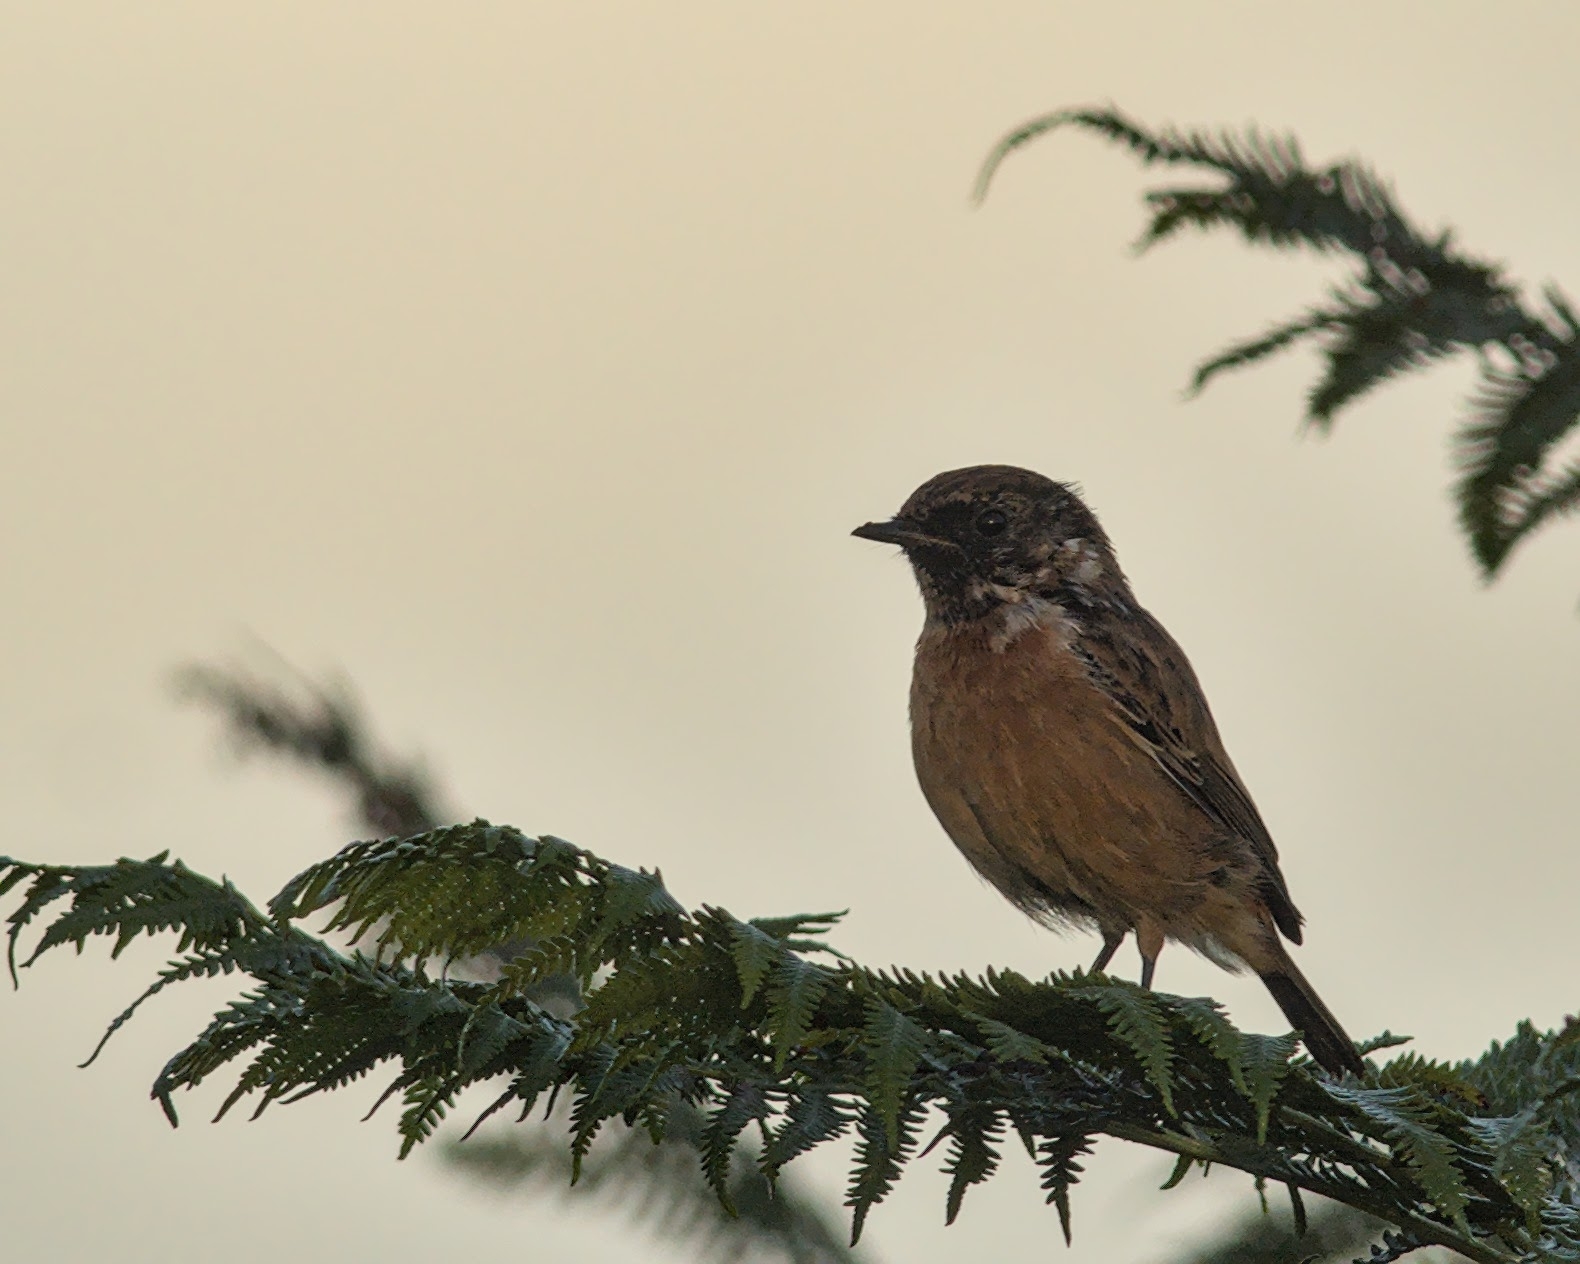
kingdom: Animalia
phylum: Chordata
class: Aves
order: Passeriformes
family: Muscicapidae
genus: Saxicola
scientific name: Saxicola rubicola
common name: European stonechat
